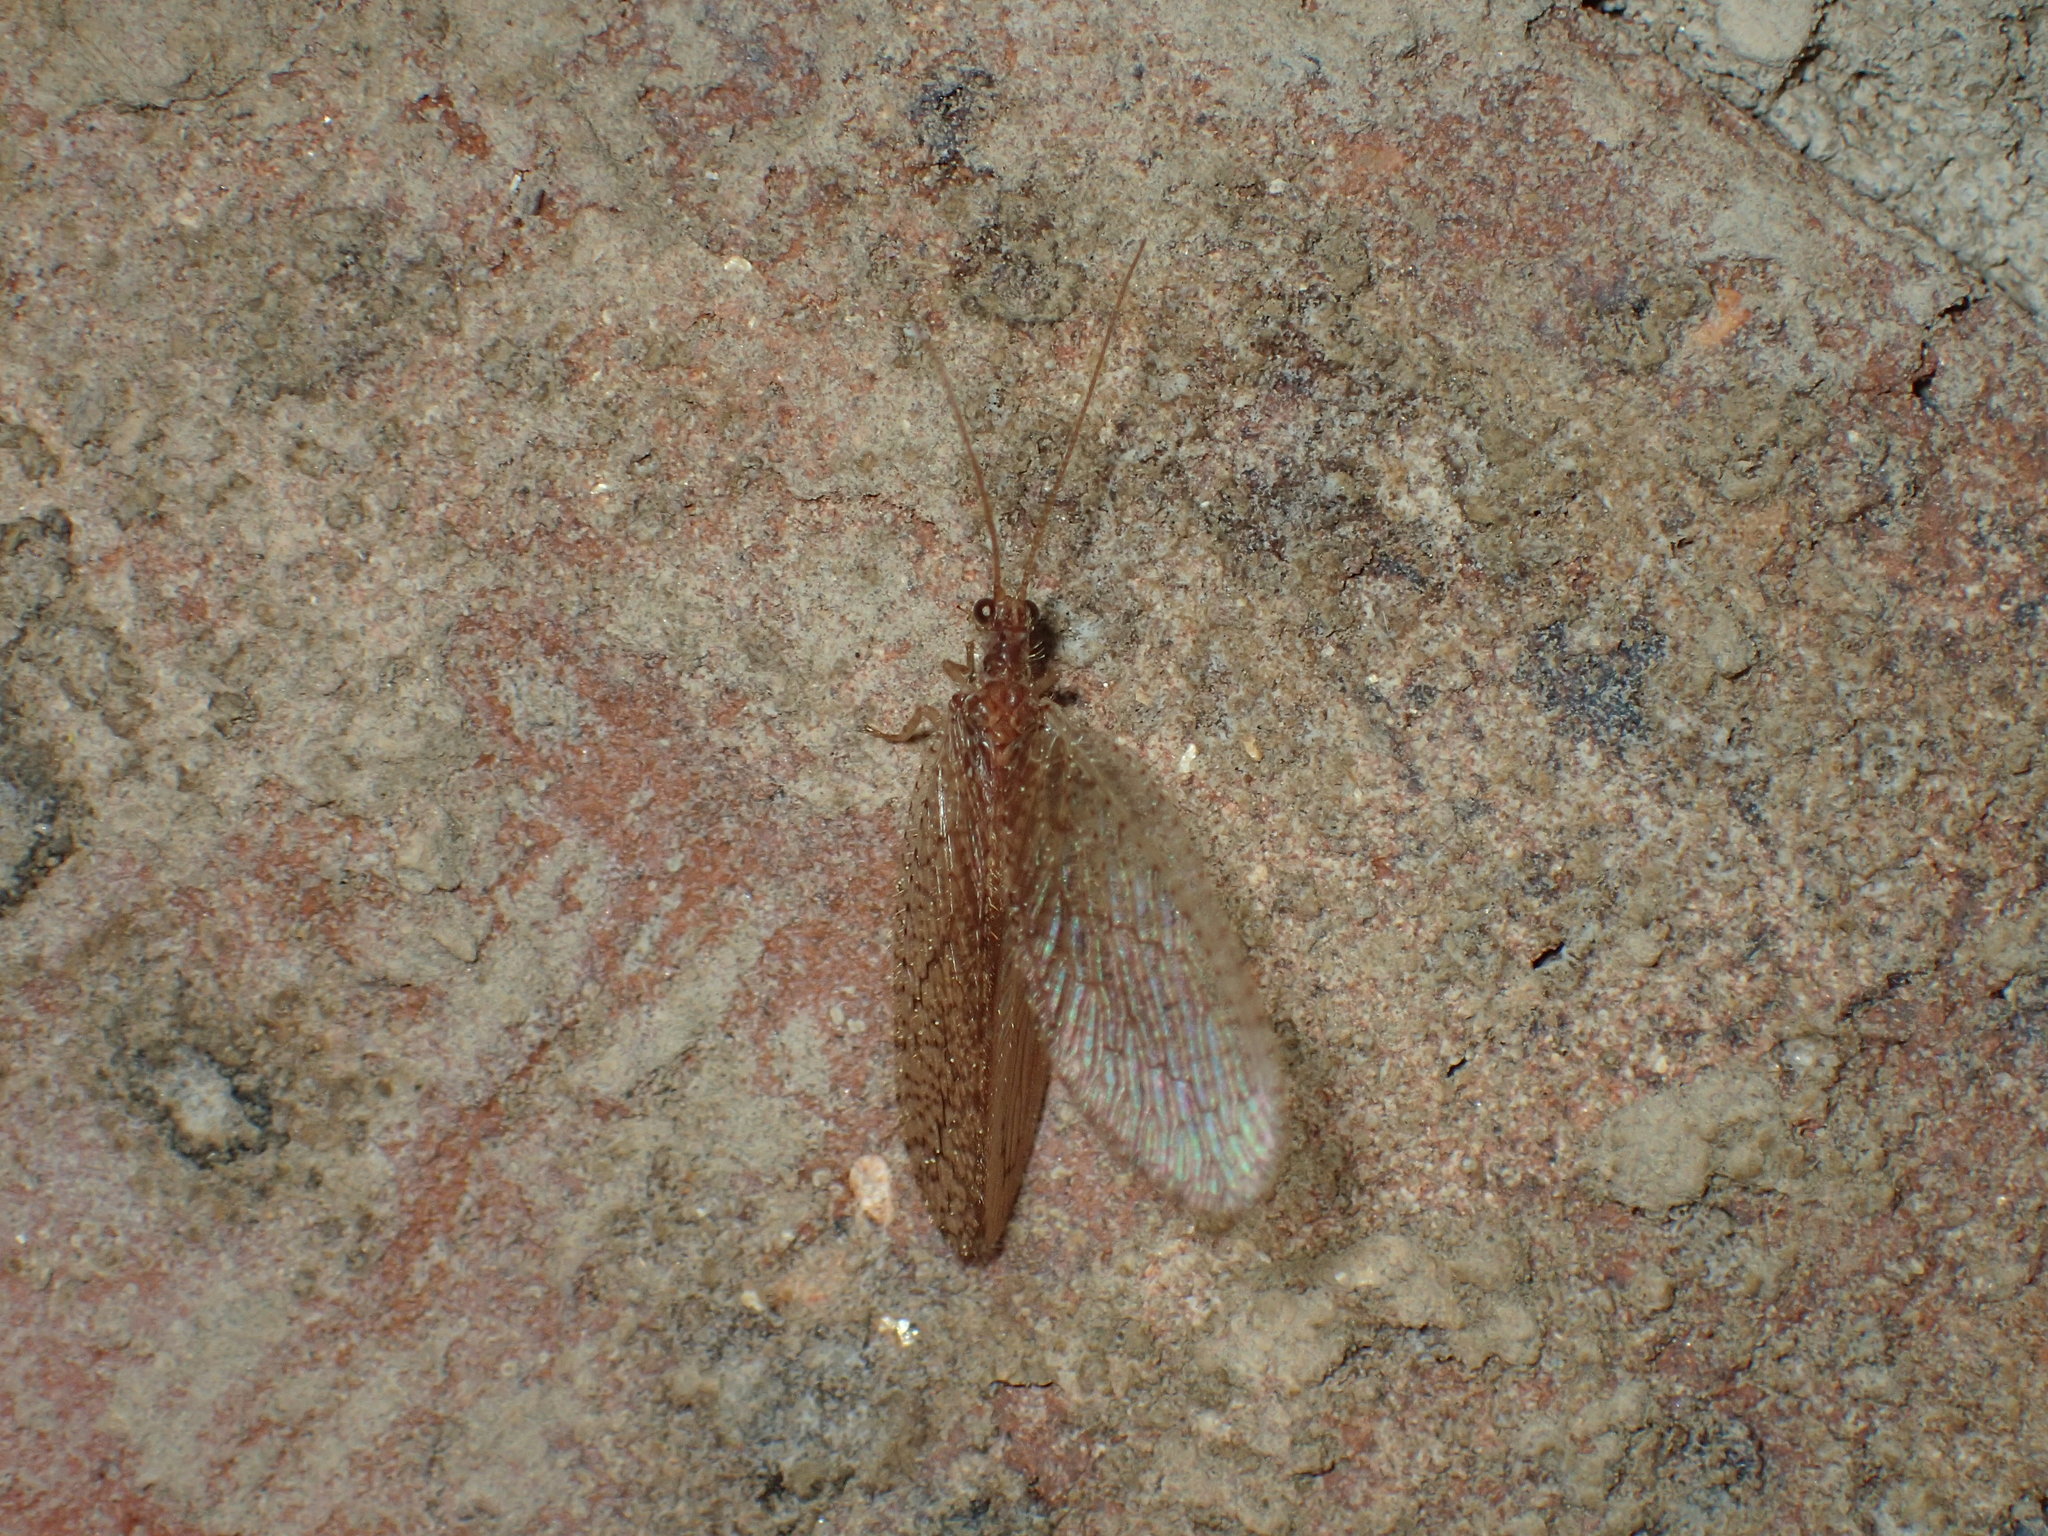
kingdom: Animalia
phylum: Arthropoda
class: Insecta
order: Neuroptera
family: Hemerobiidae
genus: Micromus
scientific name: Micromus posticus
